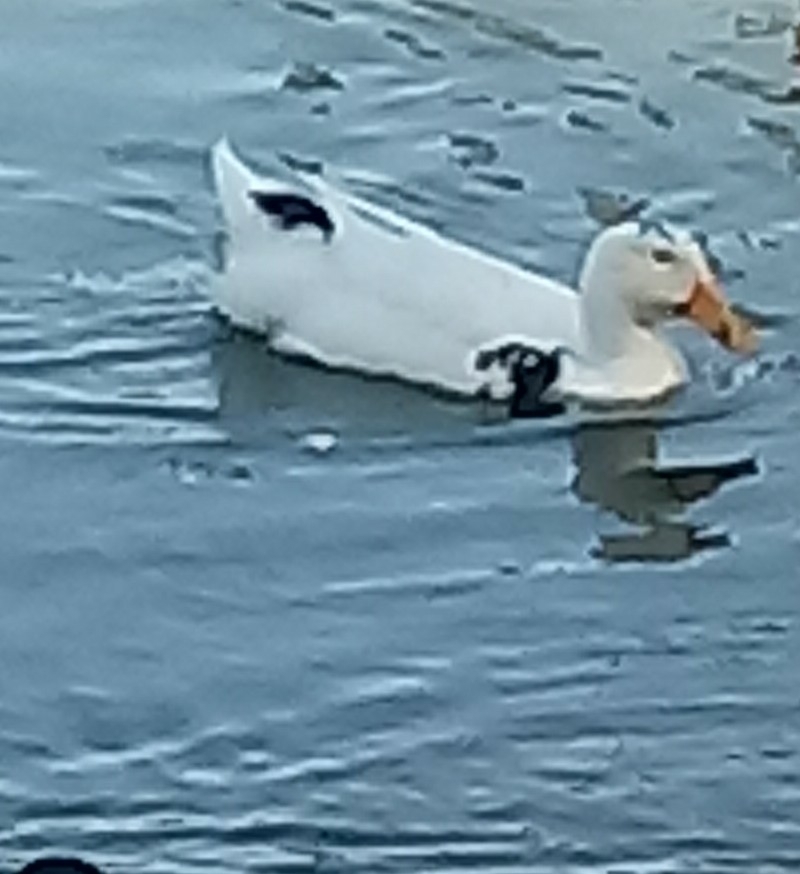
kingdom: Animalia
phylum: Chordata
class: Aves
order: Anseriformes
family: Anatidae
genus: Anas
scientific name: Anas platyrhynchos
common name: Mallard
